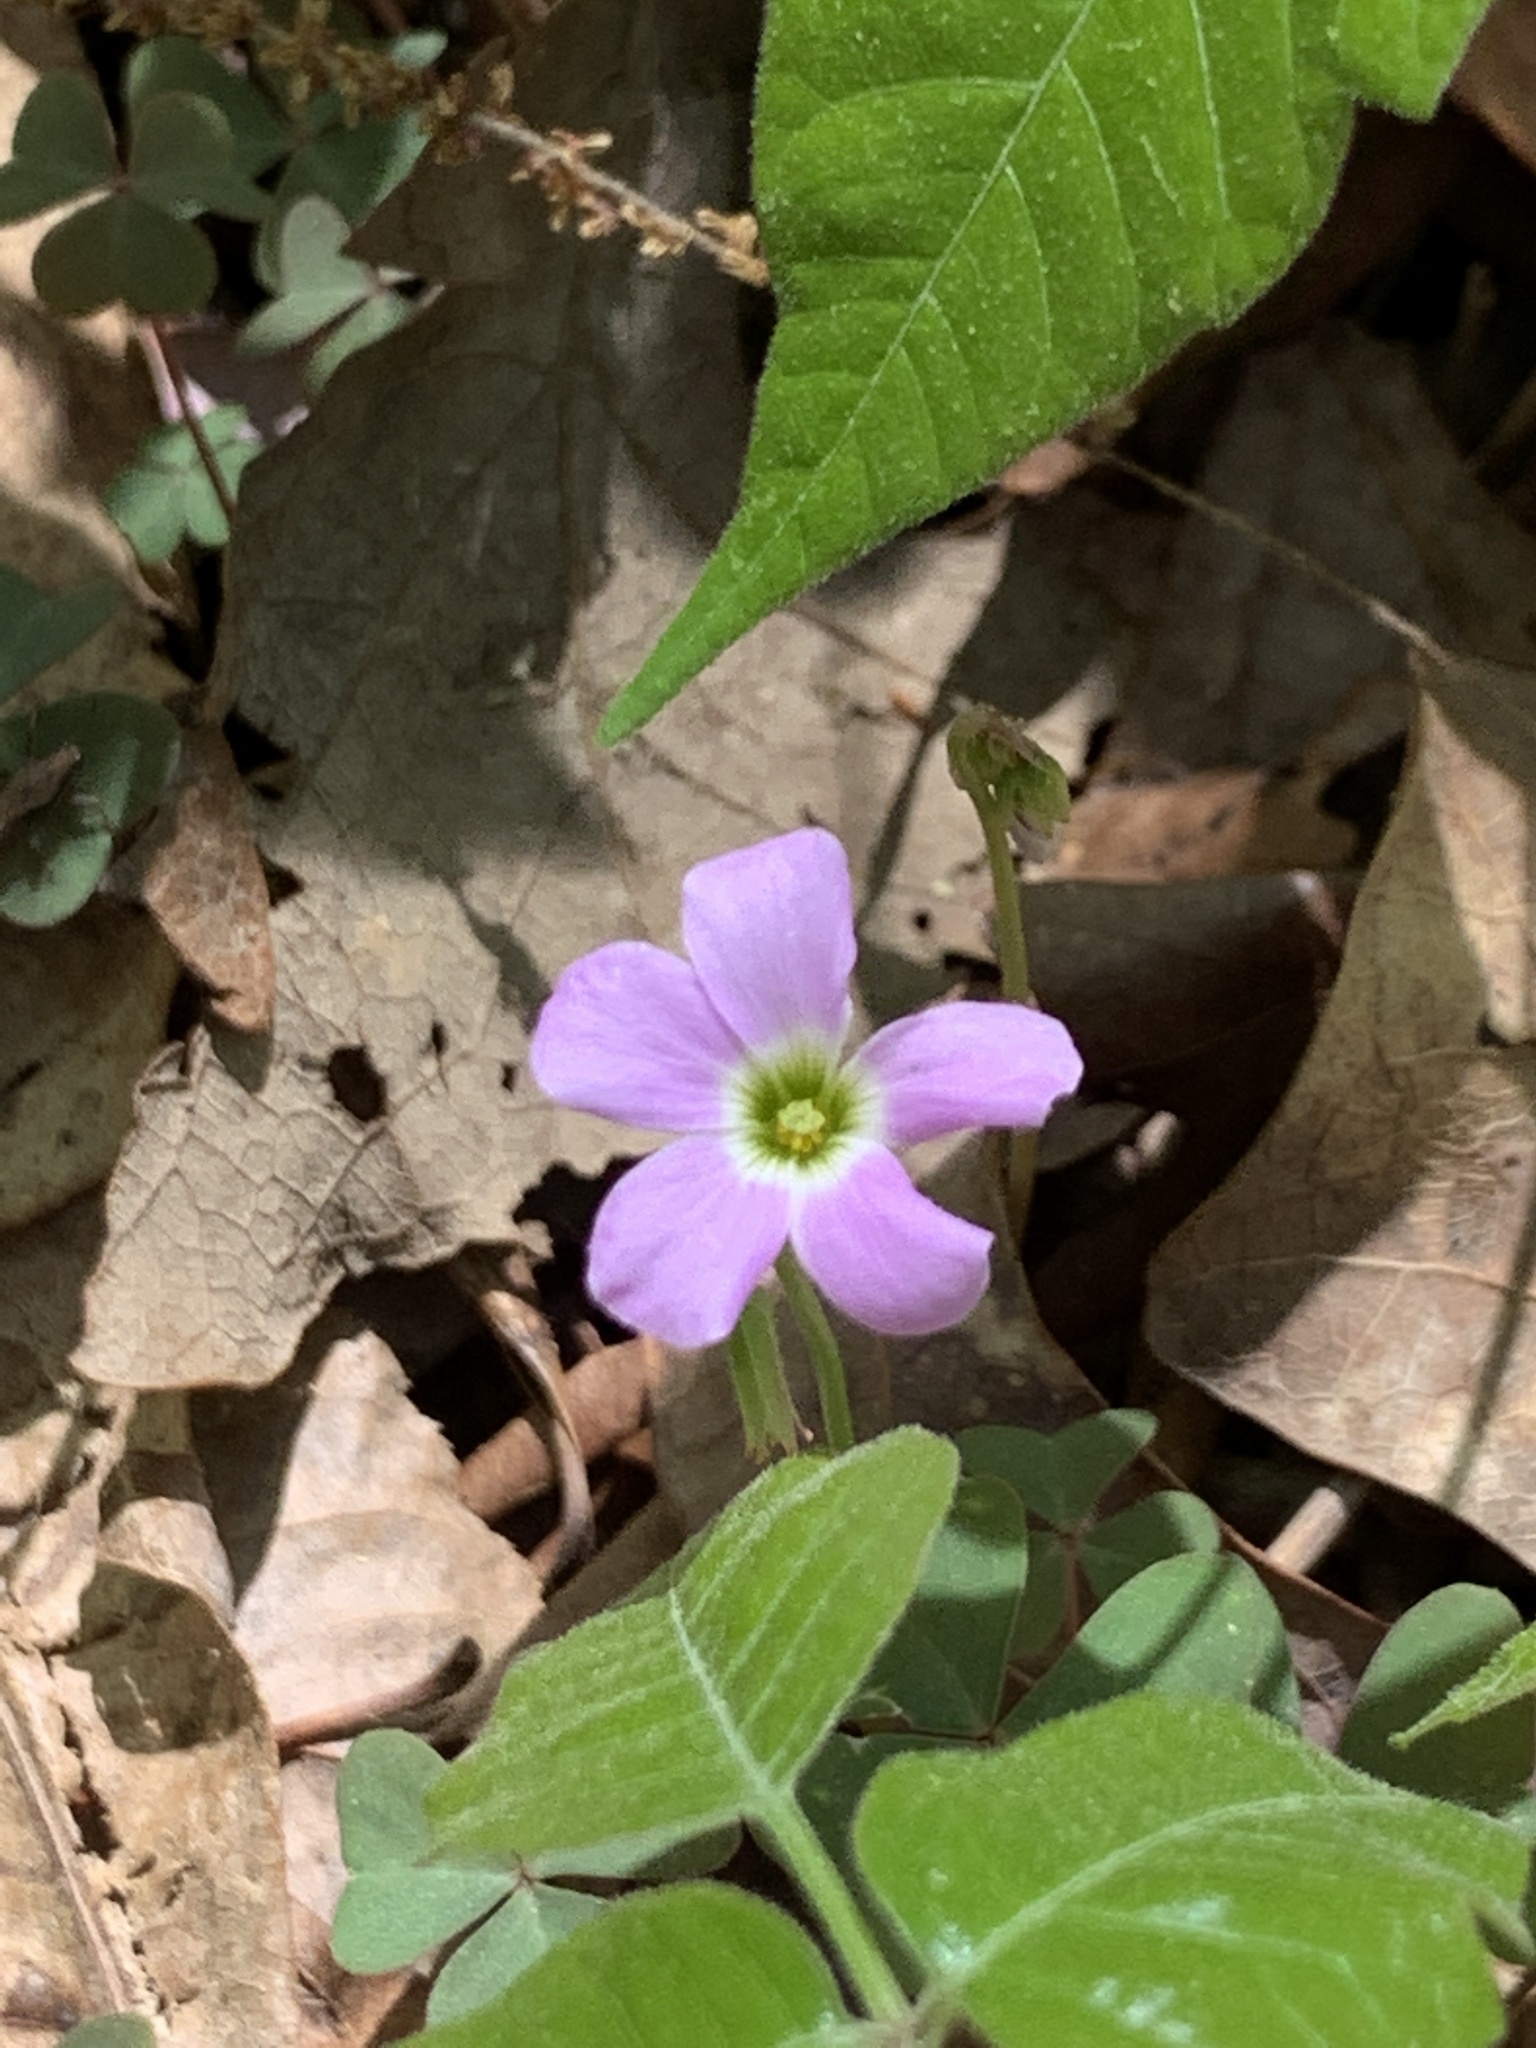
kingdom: Plantae
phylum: Tracheophyta
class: Magnoliopsida
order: Oxalidales
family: Oxalidaceae
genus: Oxalis
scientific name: Oxalis violacea
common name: Violet wood-sorrel
